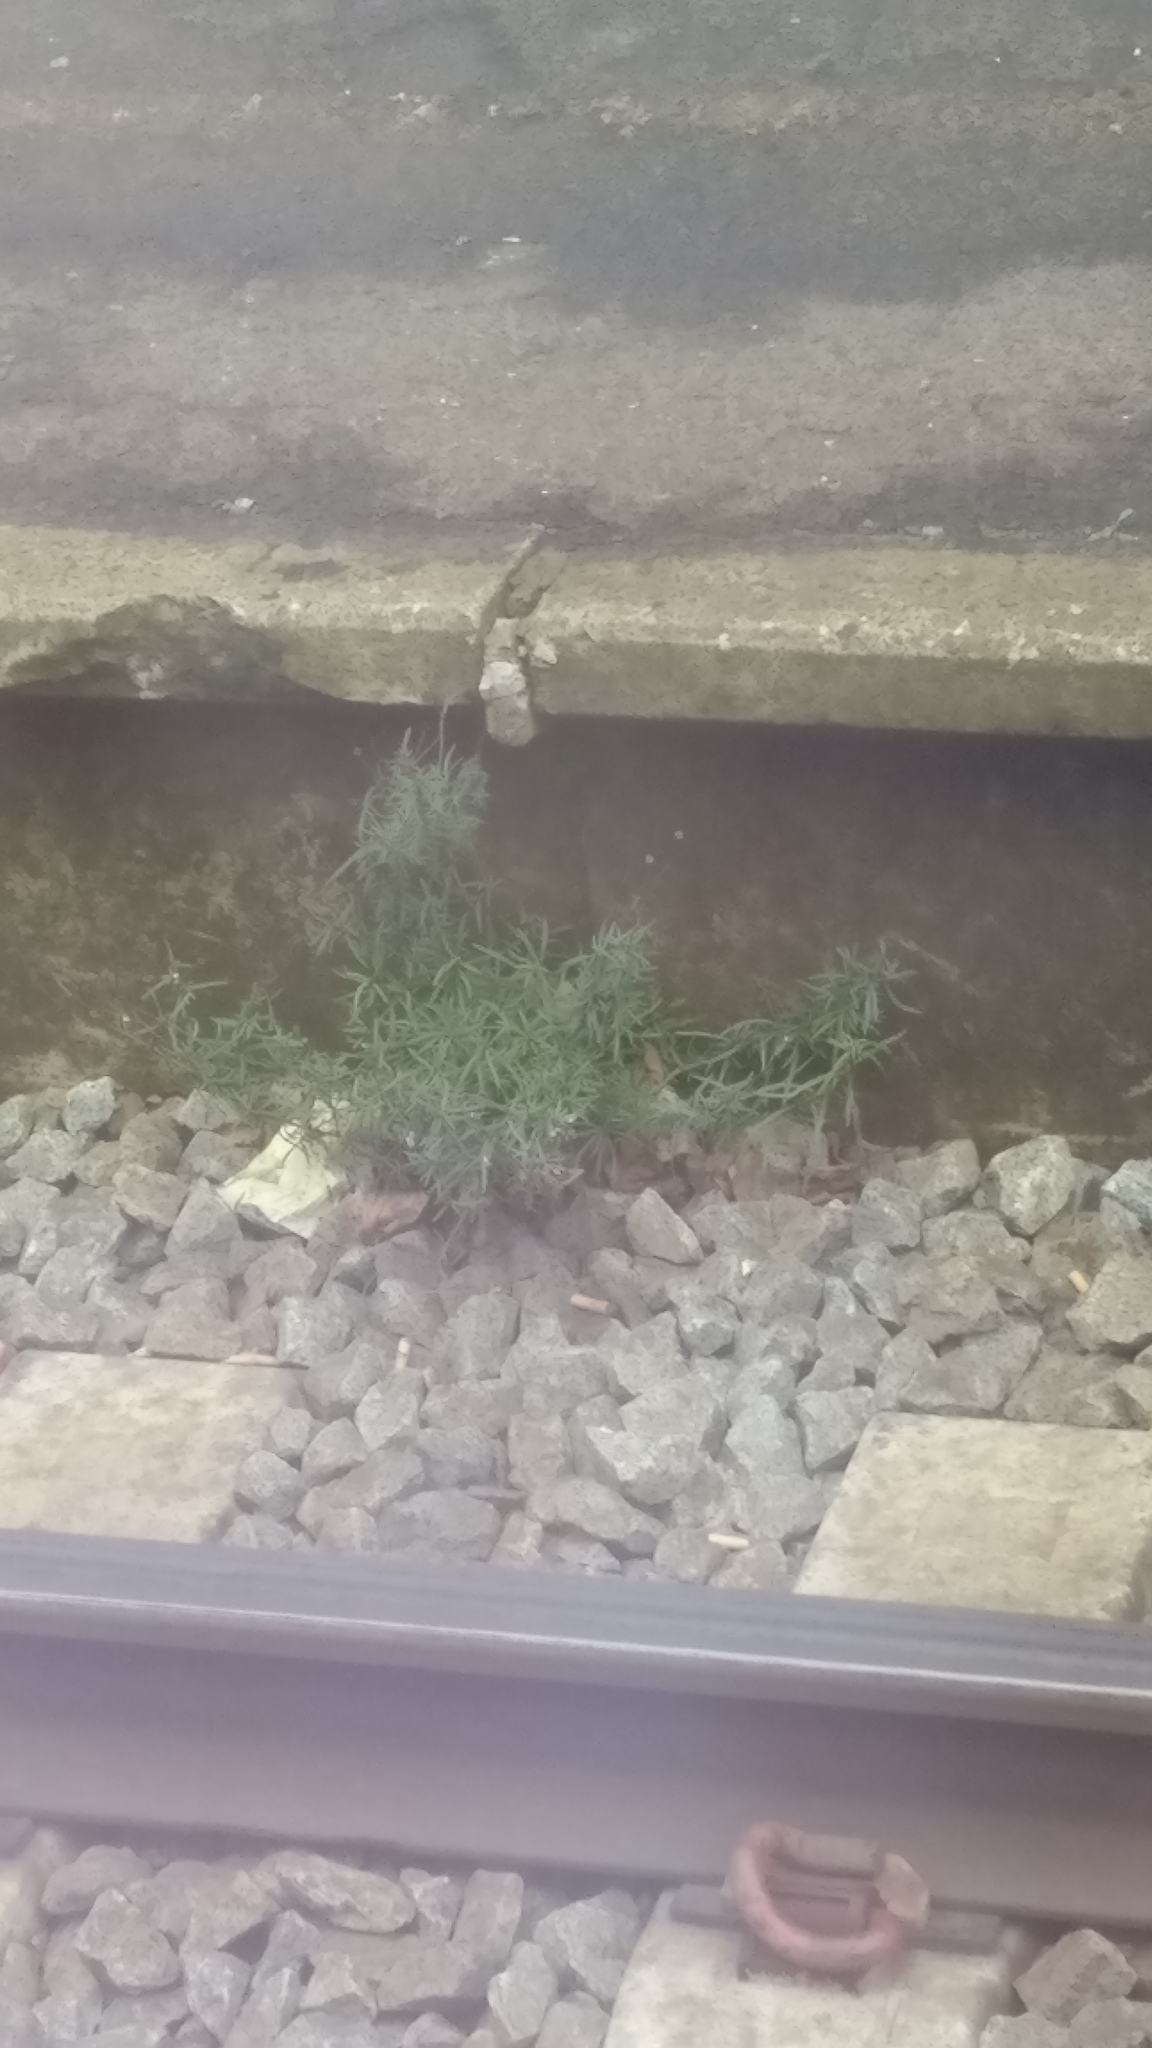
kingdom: Plantae
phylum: Tracheophyta
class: Magnoliopsida
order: Asterales
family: Asteraceae
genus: Senecio
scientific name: Senecio inaequidens
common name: Narrow-leaved ragwort
